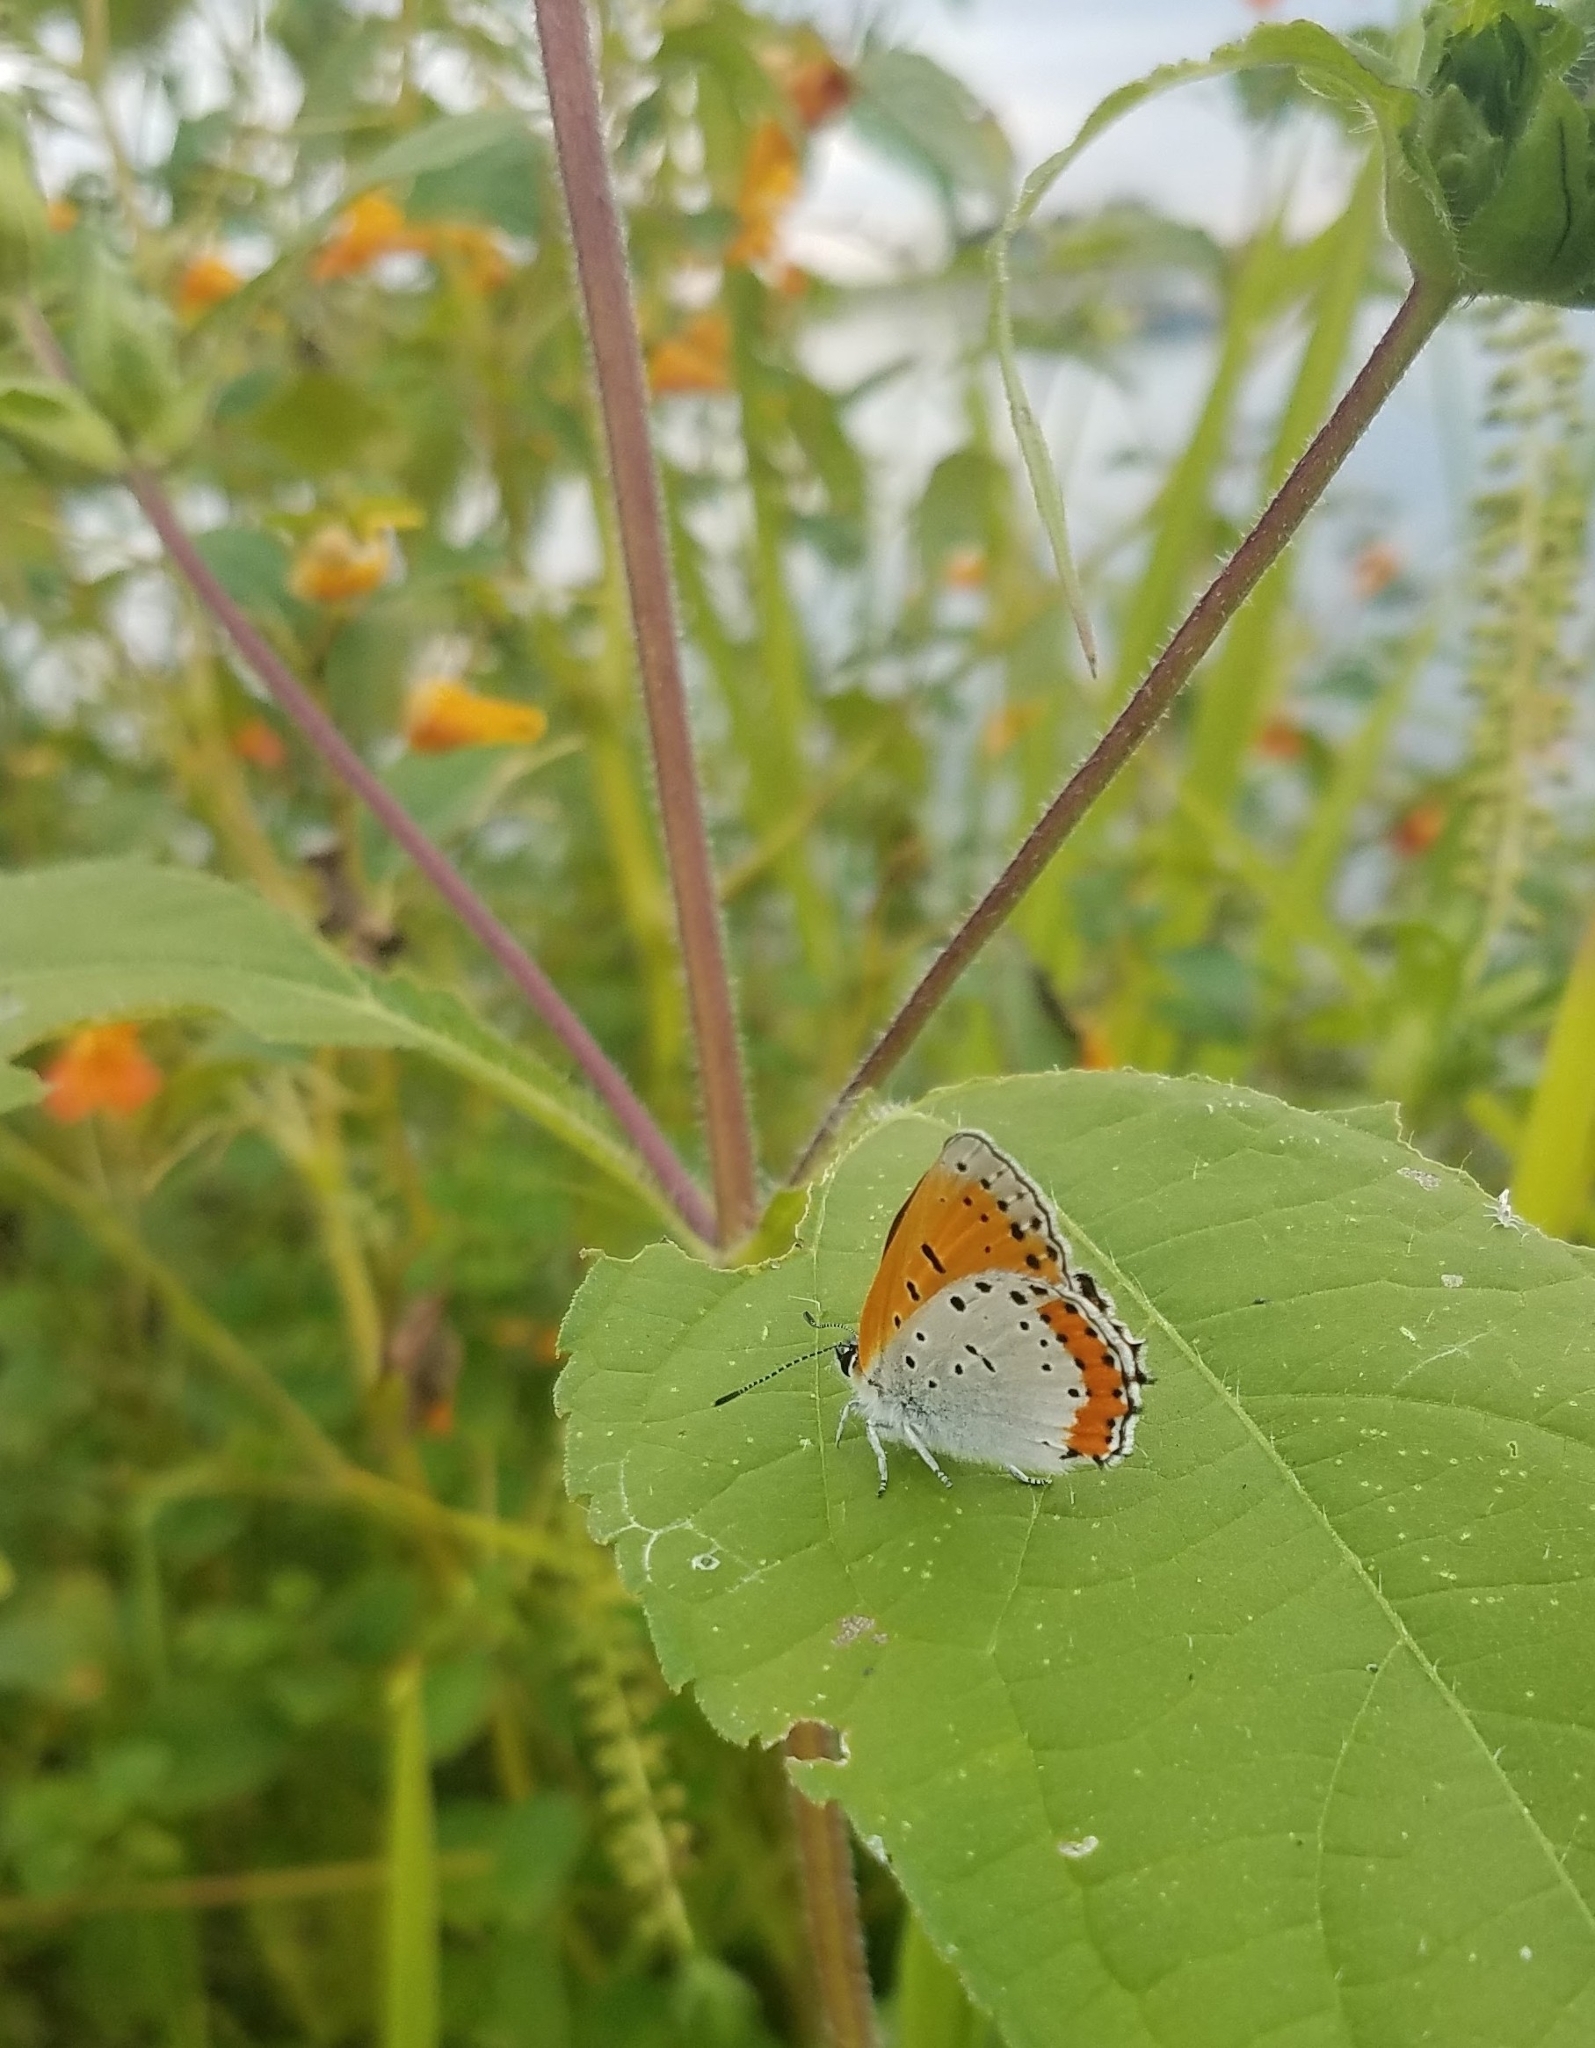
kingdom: Animalia
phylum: Arthropoda
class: Insecta
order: Lepidoptera
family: Lycaenidae
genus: Tharsalea
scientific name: Tharsalea hyllus
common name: Bronze copper
